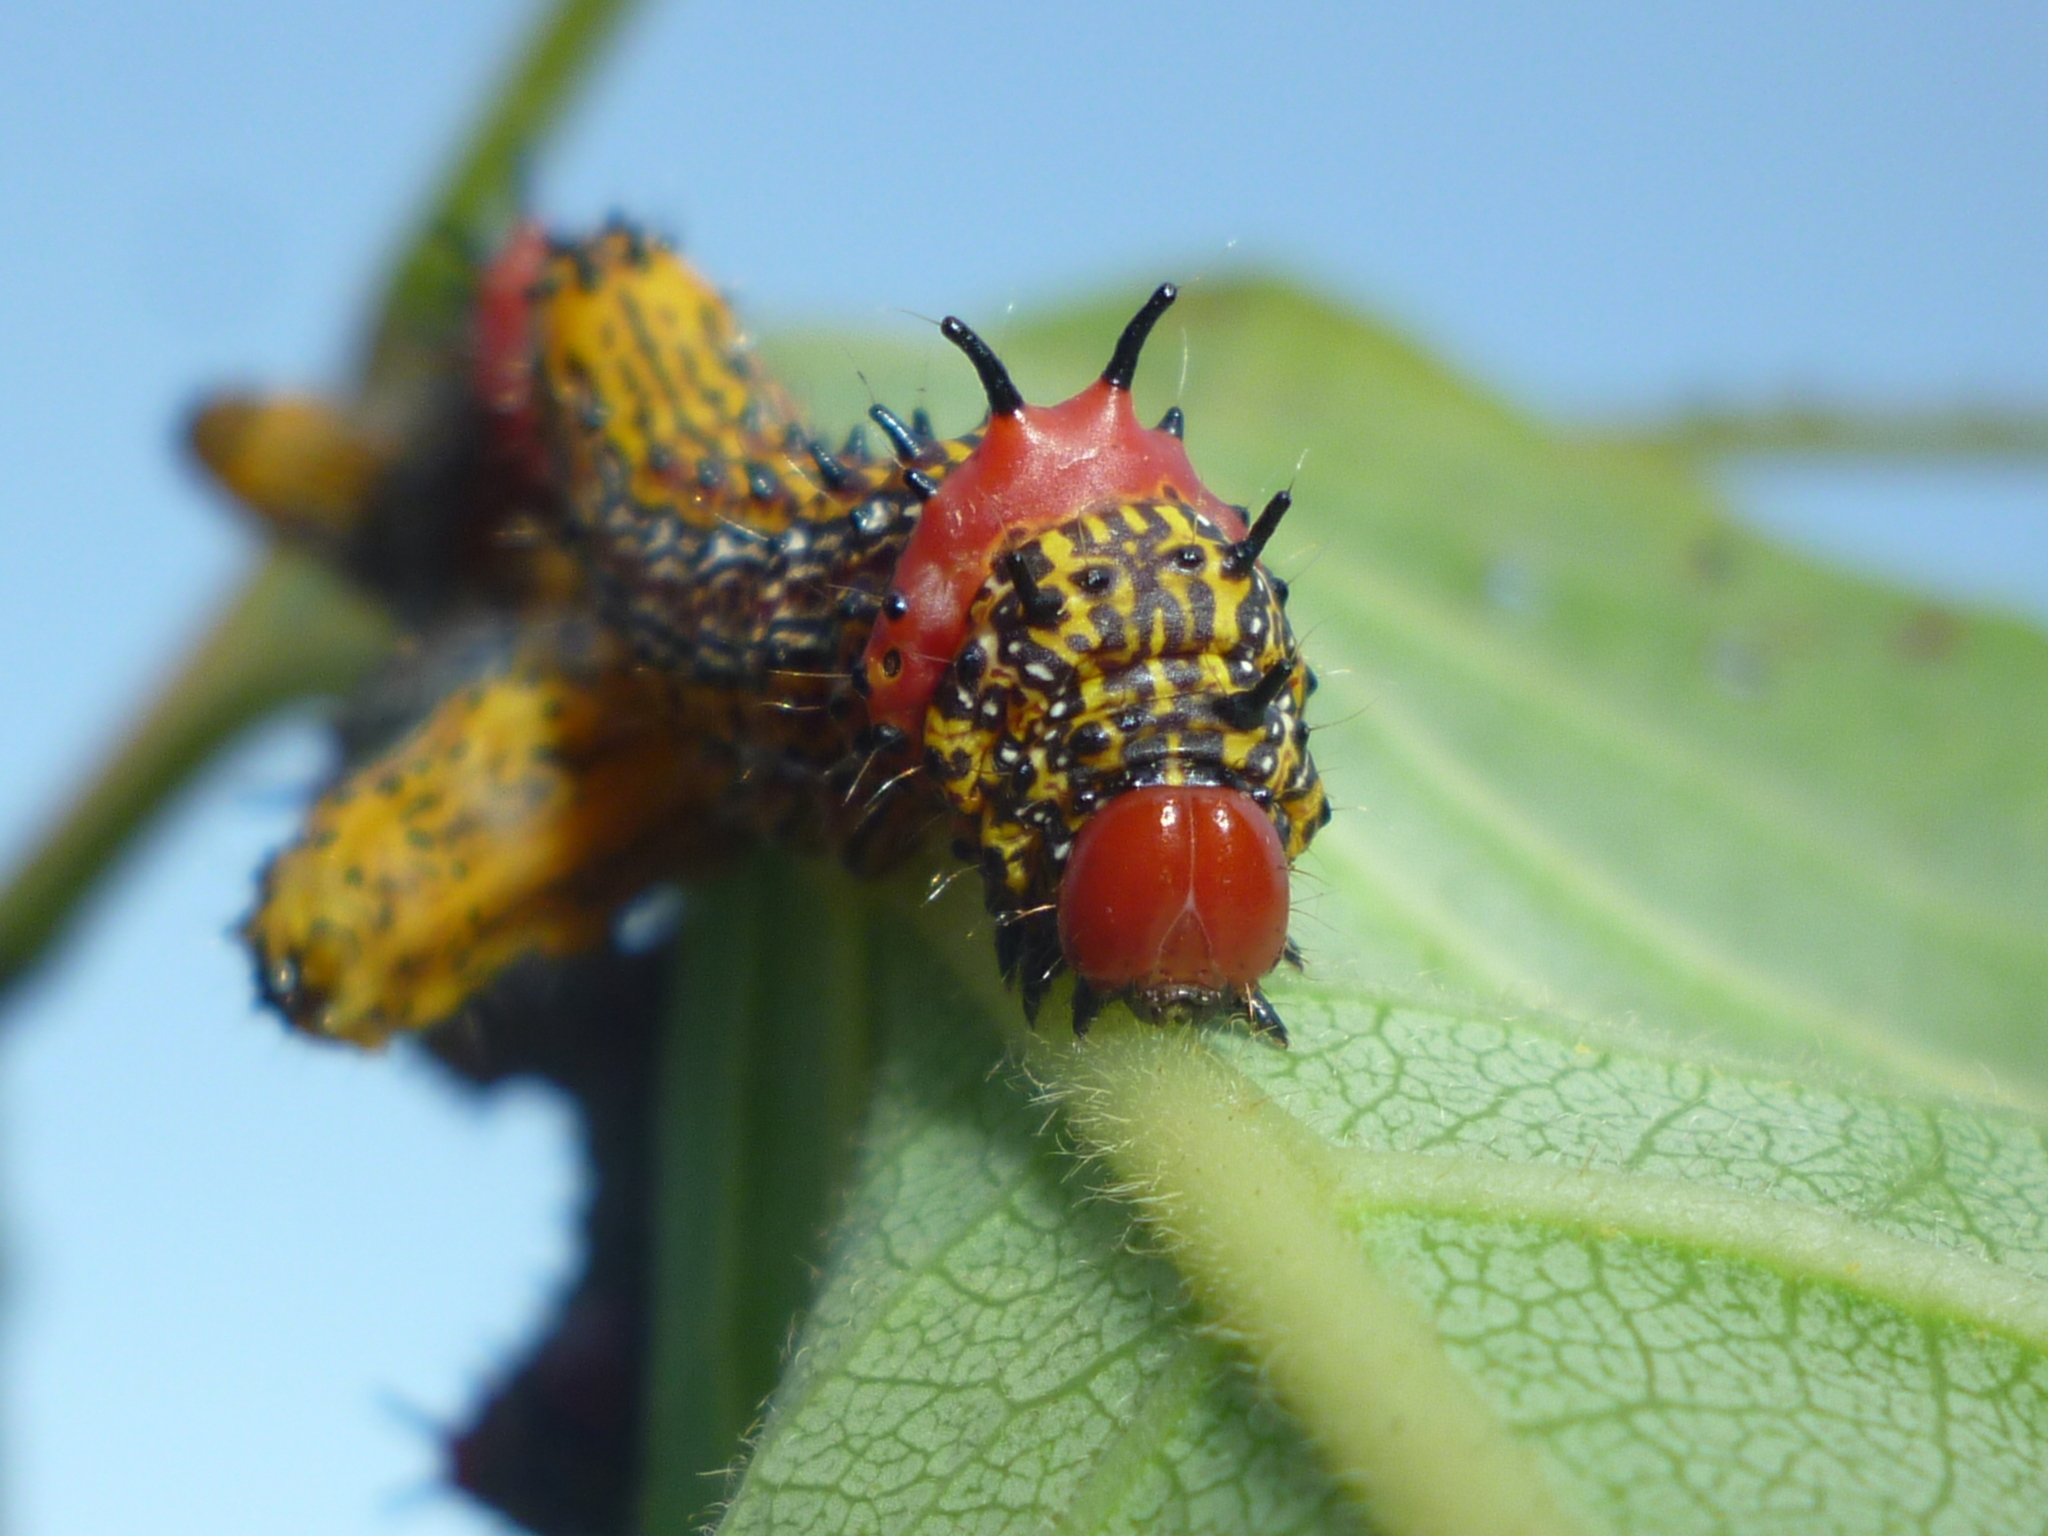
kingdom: Animalia
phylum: Arthropoda
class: Insecta
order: Lepidoptera
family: Notodontidae
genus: Schizura
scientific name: Schizura
